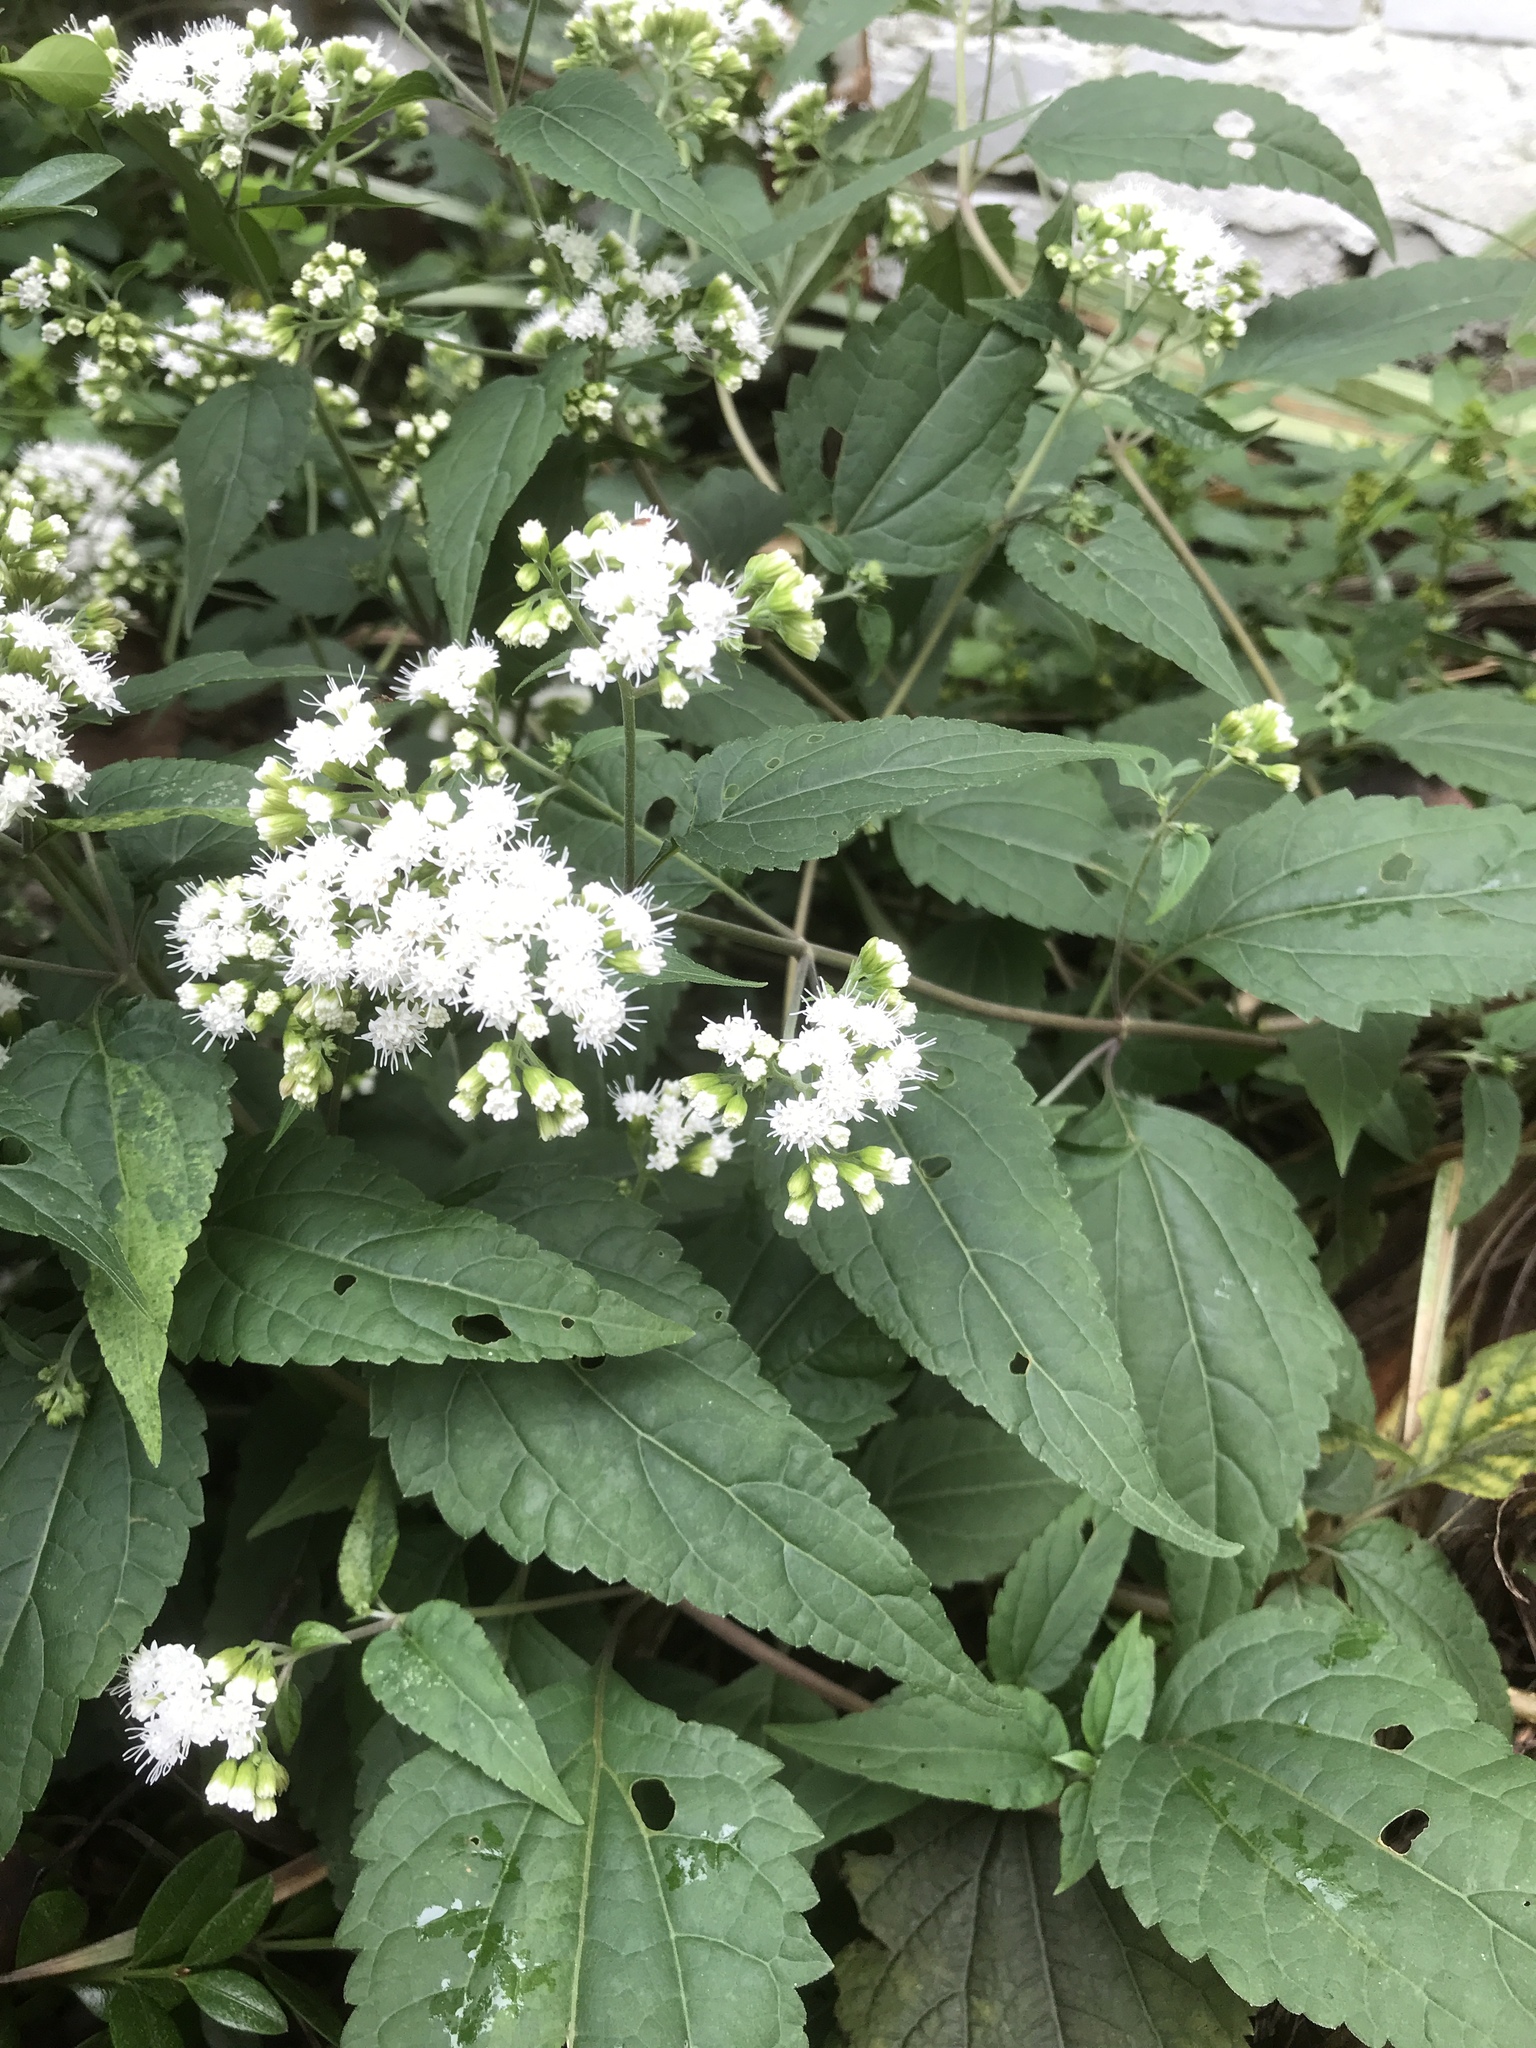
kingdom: Plantae
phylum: Tracheophyta
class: Magnoliopsida
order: Asterales
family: Asteraceae
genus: Ageratina
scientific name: Ageratina altissima
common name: White snakeroot
